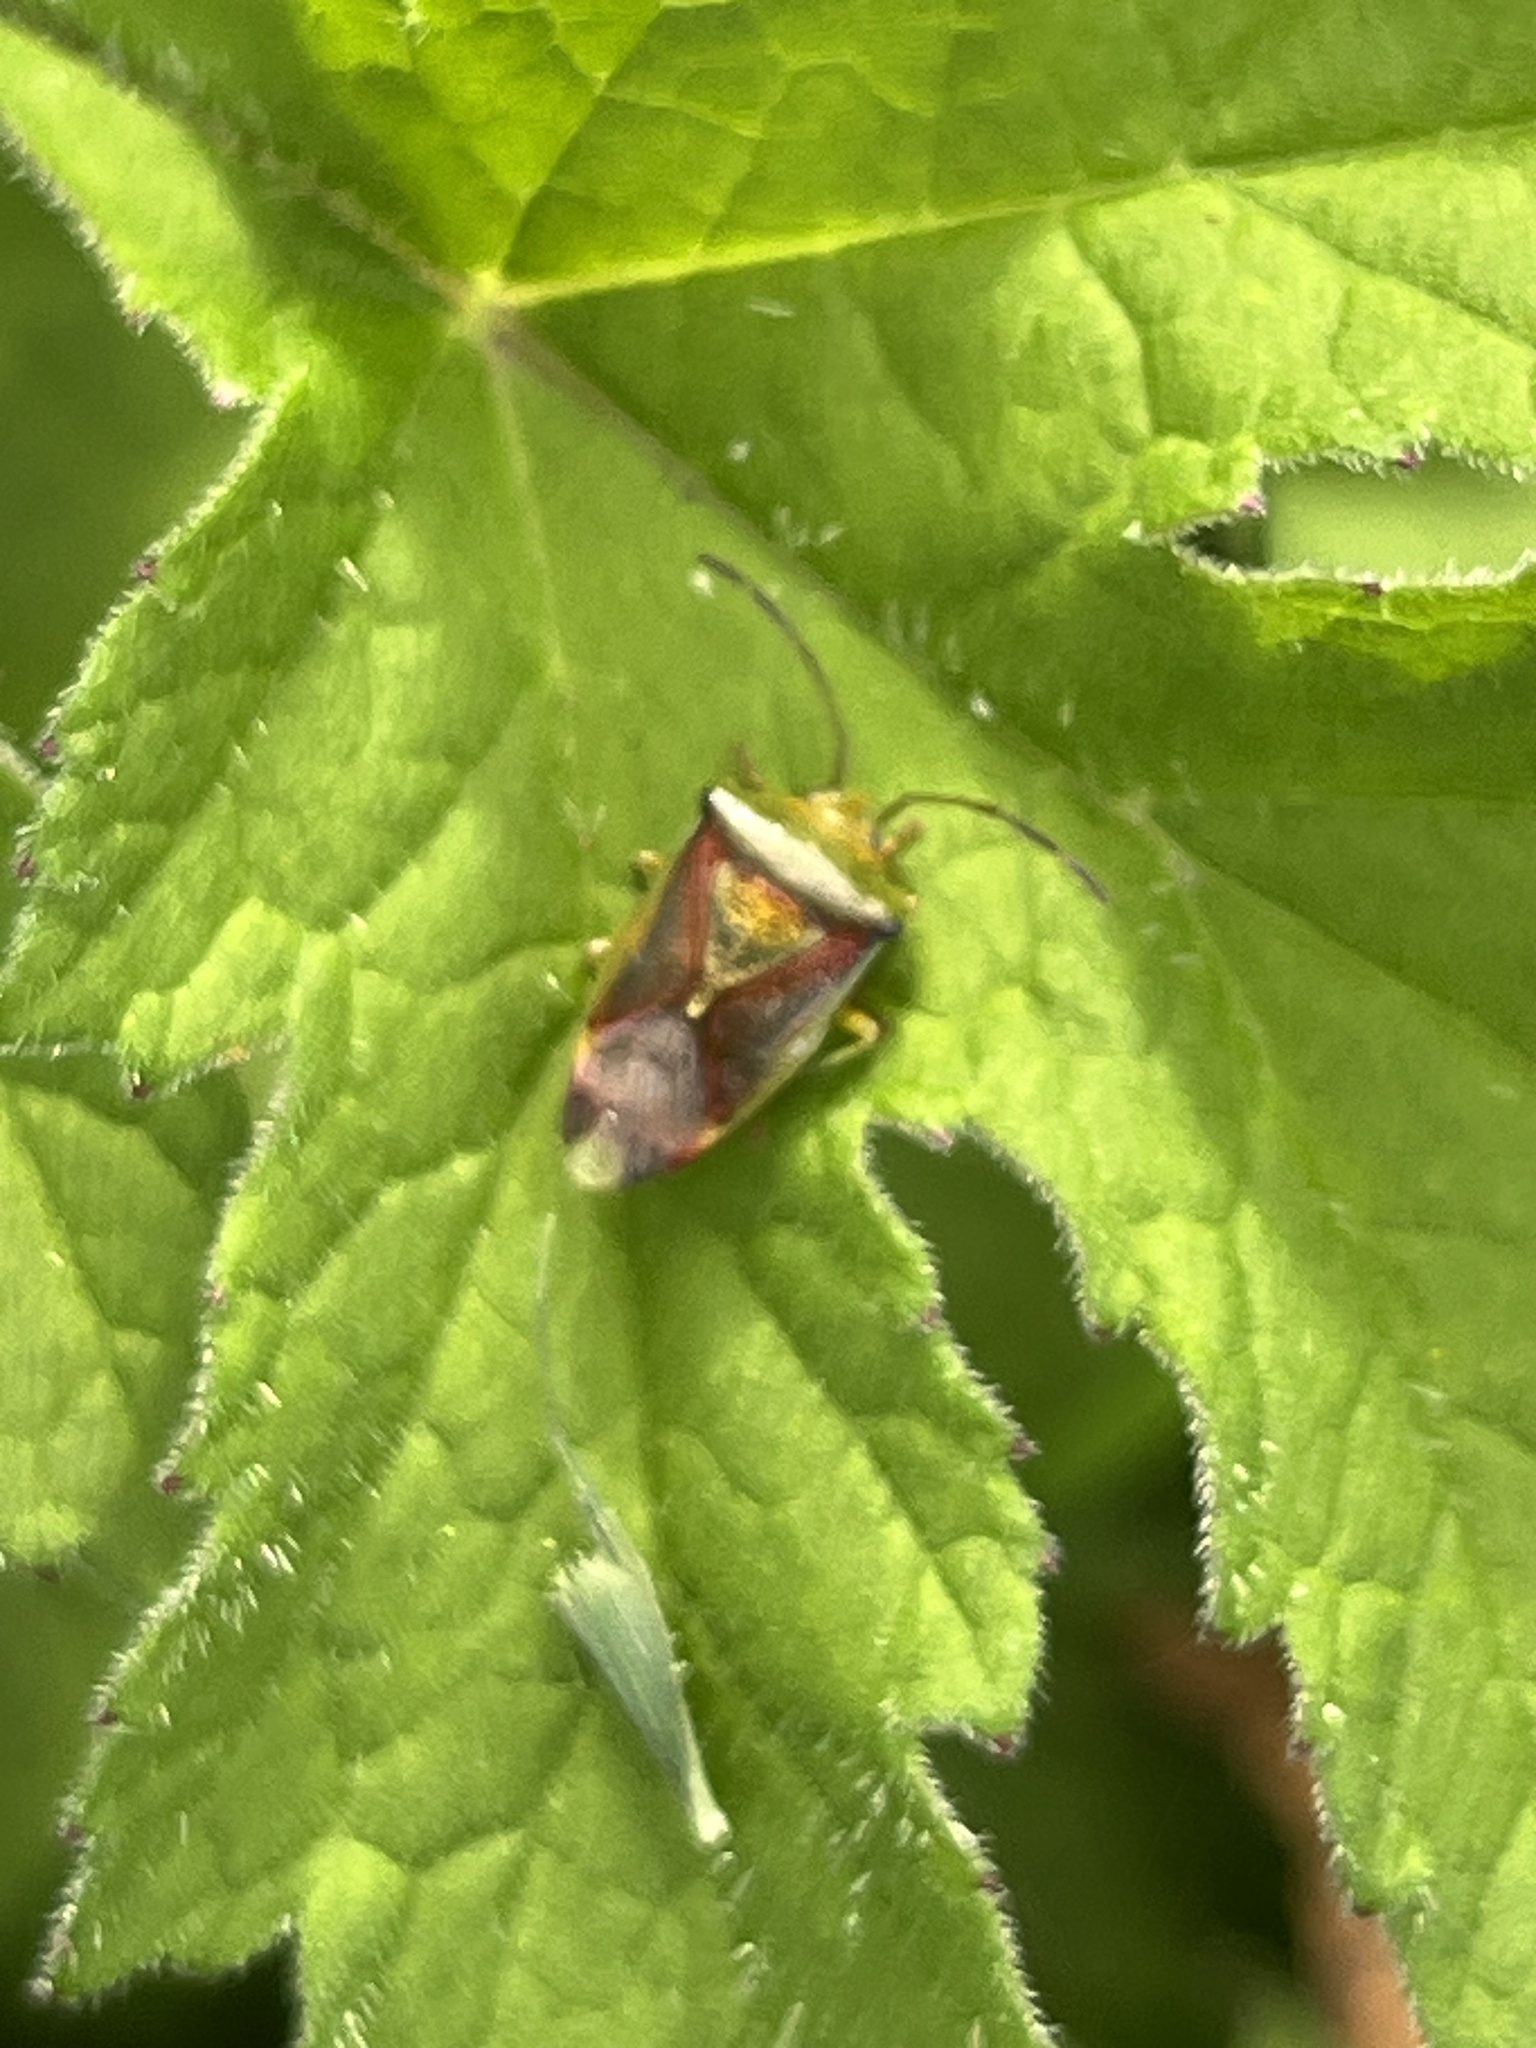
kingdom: Animalia
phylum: Arthropoda
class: Insecta
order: Hemiptera
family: Acanthosomatidae
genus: Elasmostethus
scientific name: Elasmostethus interstinctus
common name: Birch shieldbug
